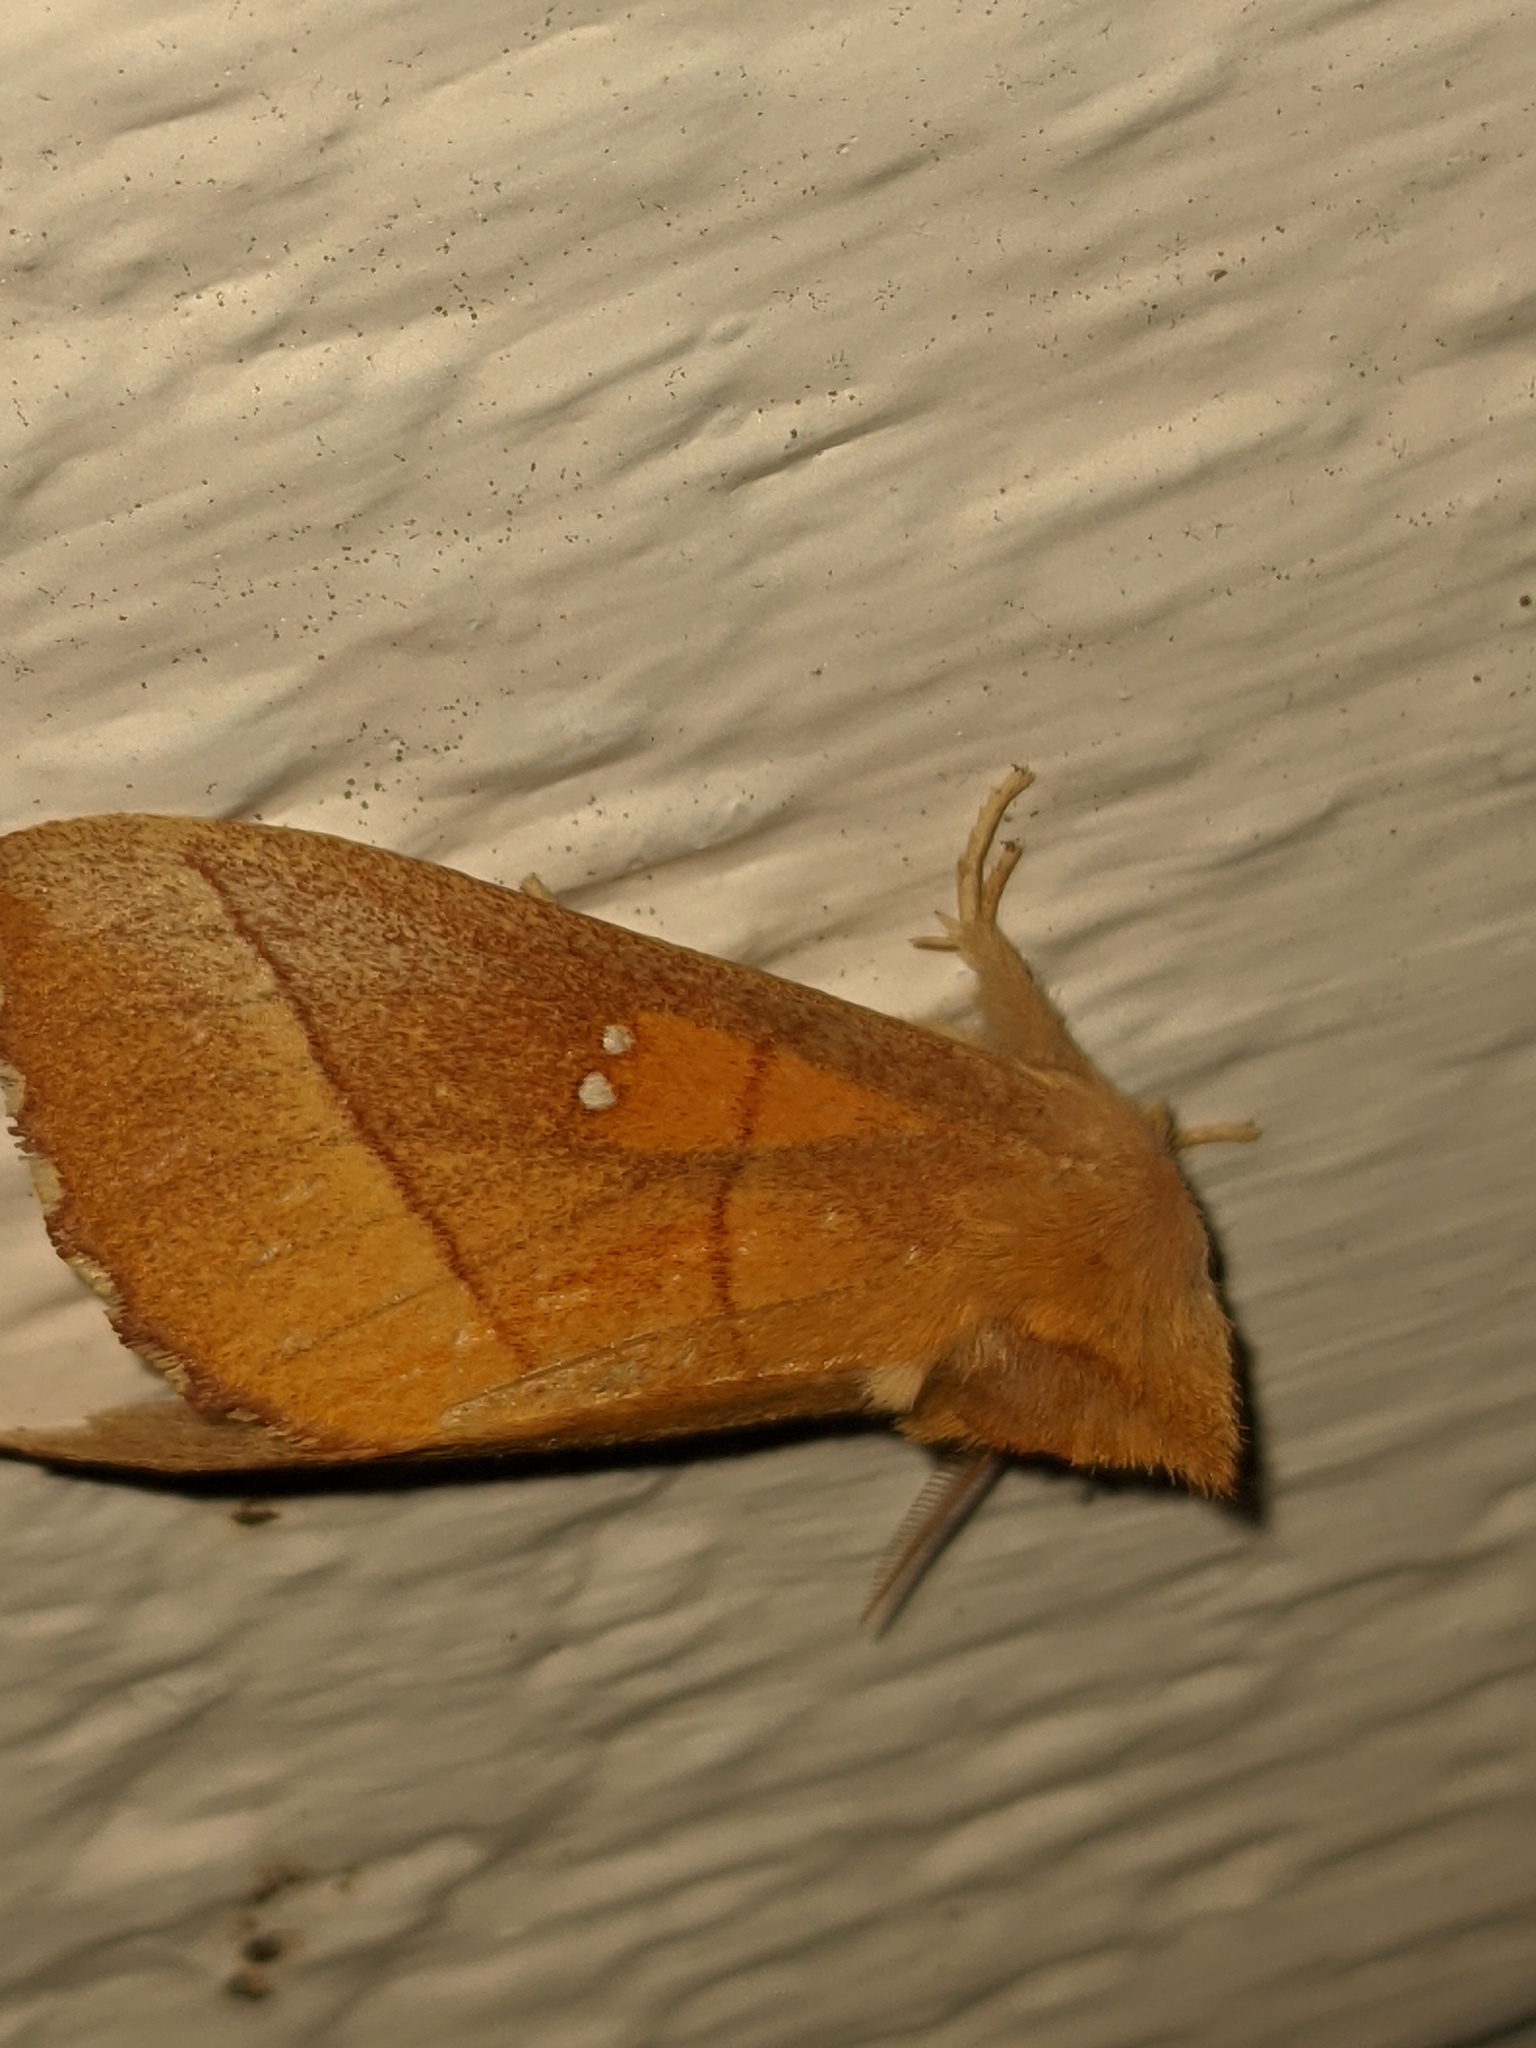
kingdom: Animalia
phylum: Arthropoda
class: Insecta
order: Lepidoptera
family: Notodontidae
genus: Nadata
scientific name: Nadata gibbosa
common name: White-dotted prominent
